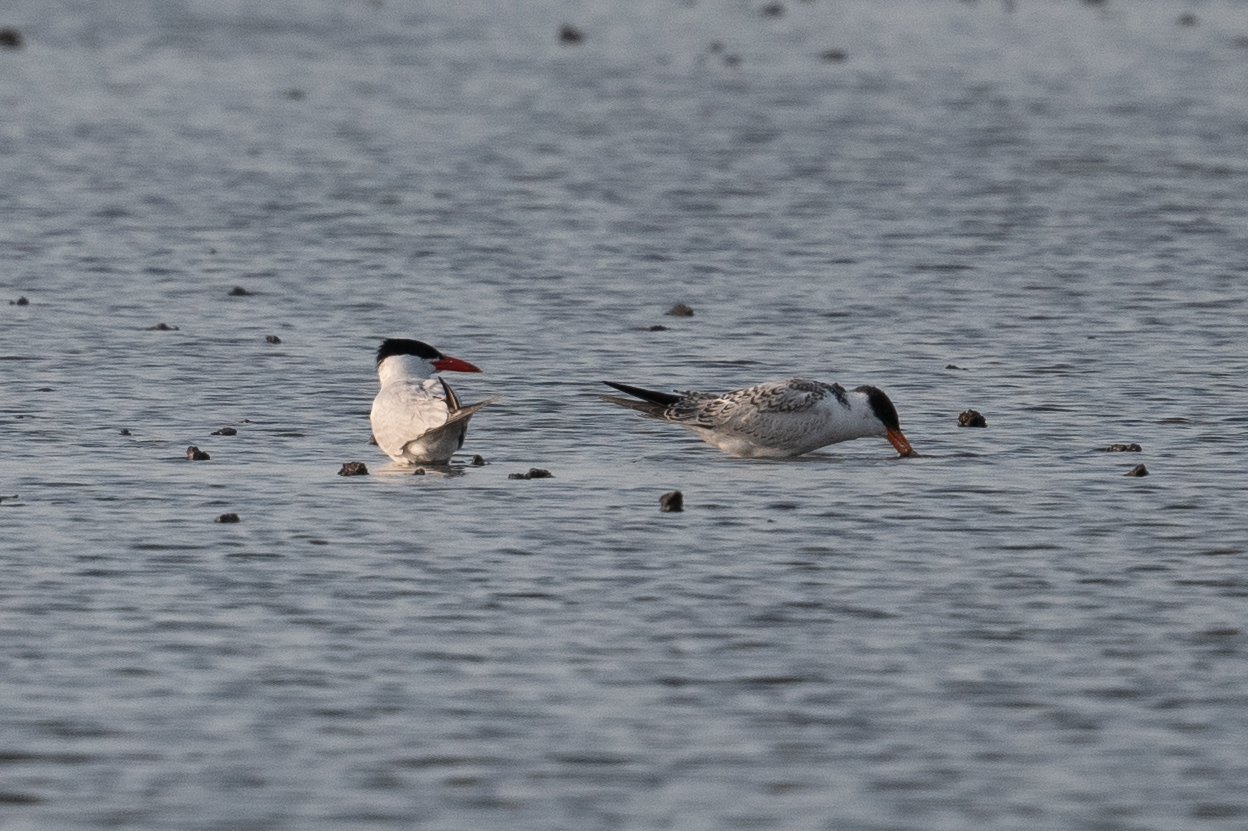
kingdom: Animalia
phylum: Chordata
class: Aves
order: Charadriiformes
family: Laridae
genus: Hydroprogne
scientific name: Hydroprogne caspia
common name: Caspian tern
